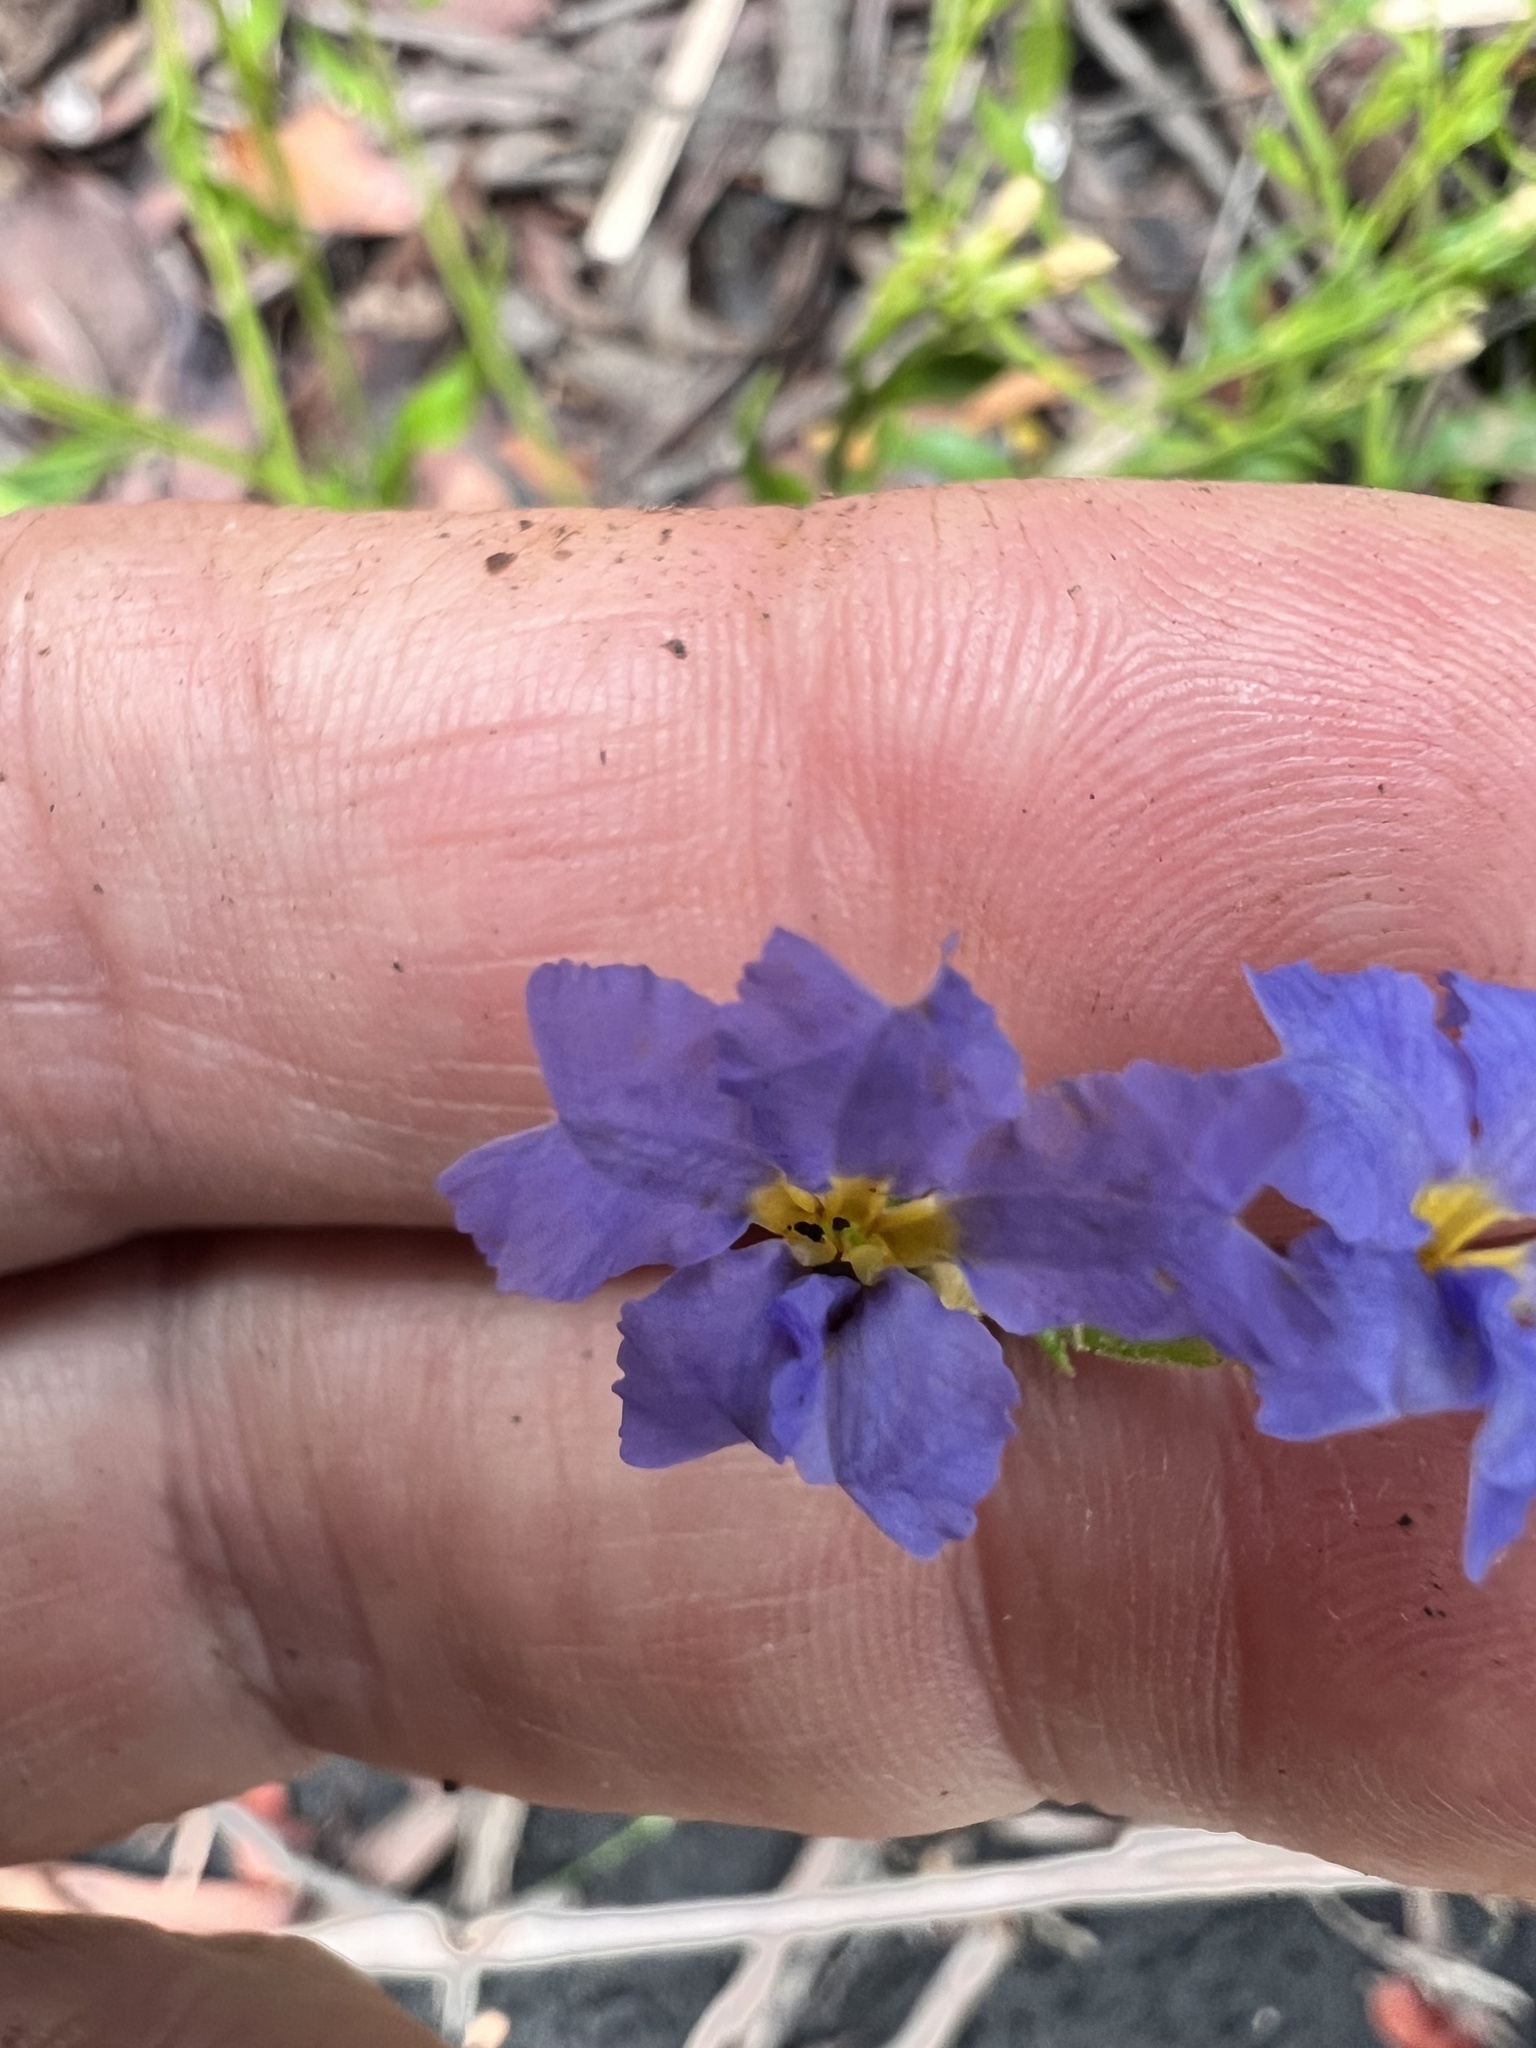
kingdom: Plantae
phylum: Tracheophyta
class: Magnoliopsida
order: Asterales
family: Goodeniaceae
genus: Dampiera
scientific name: Dampiera stricta
